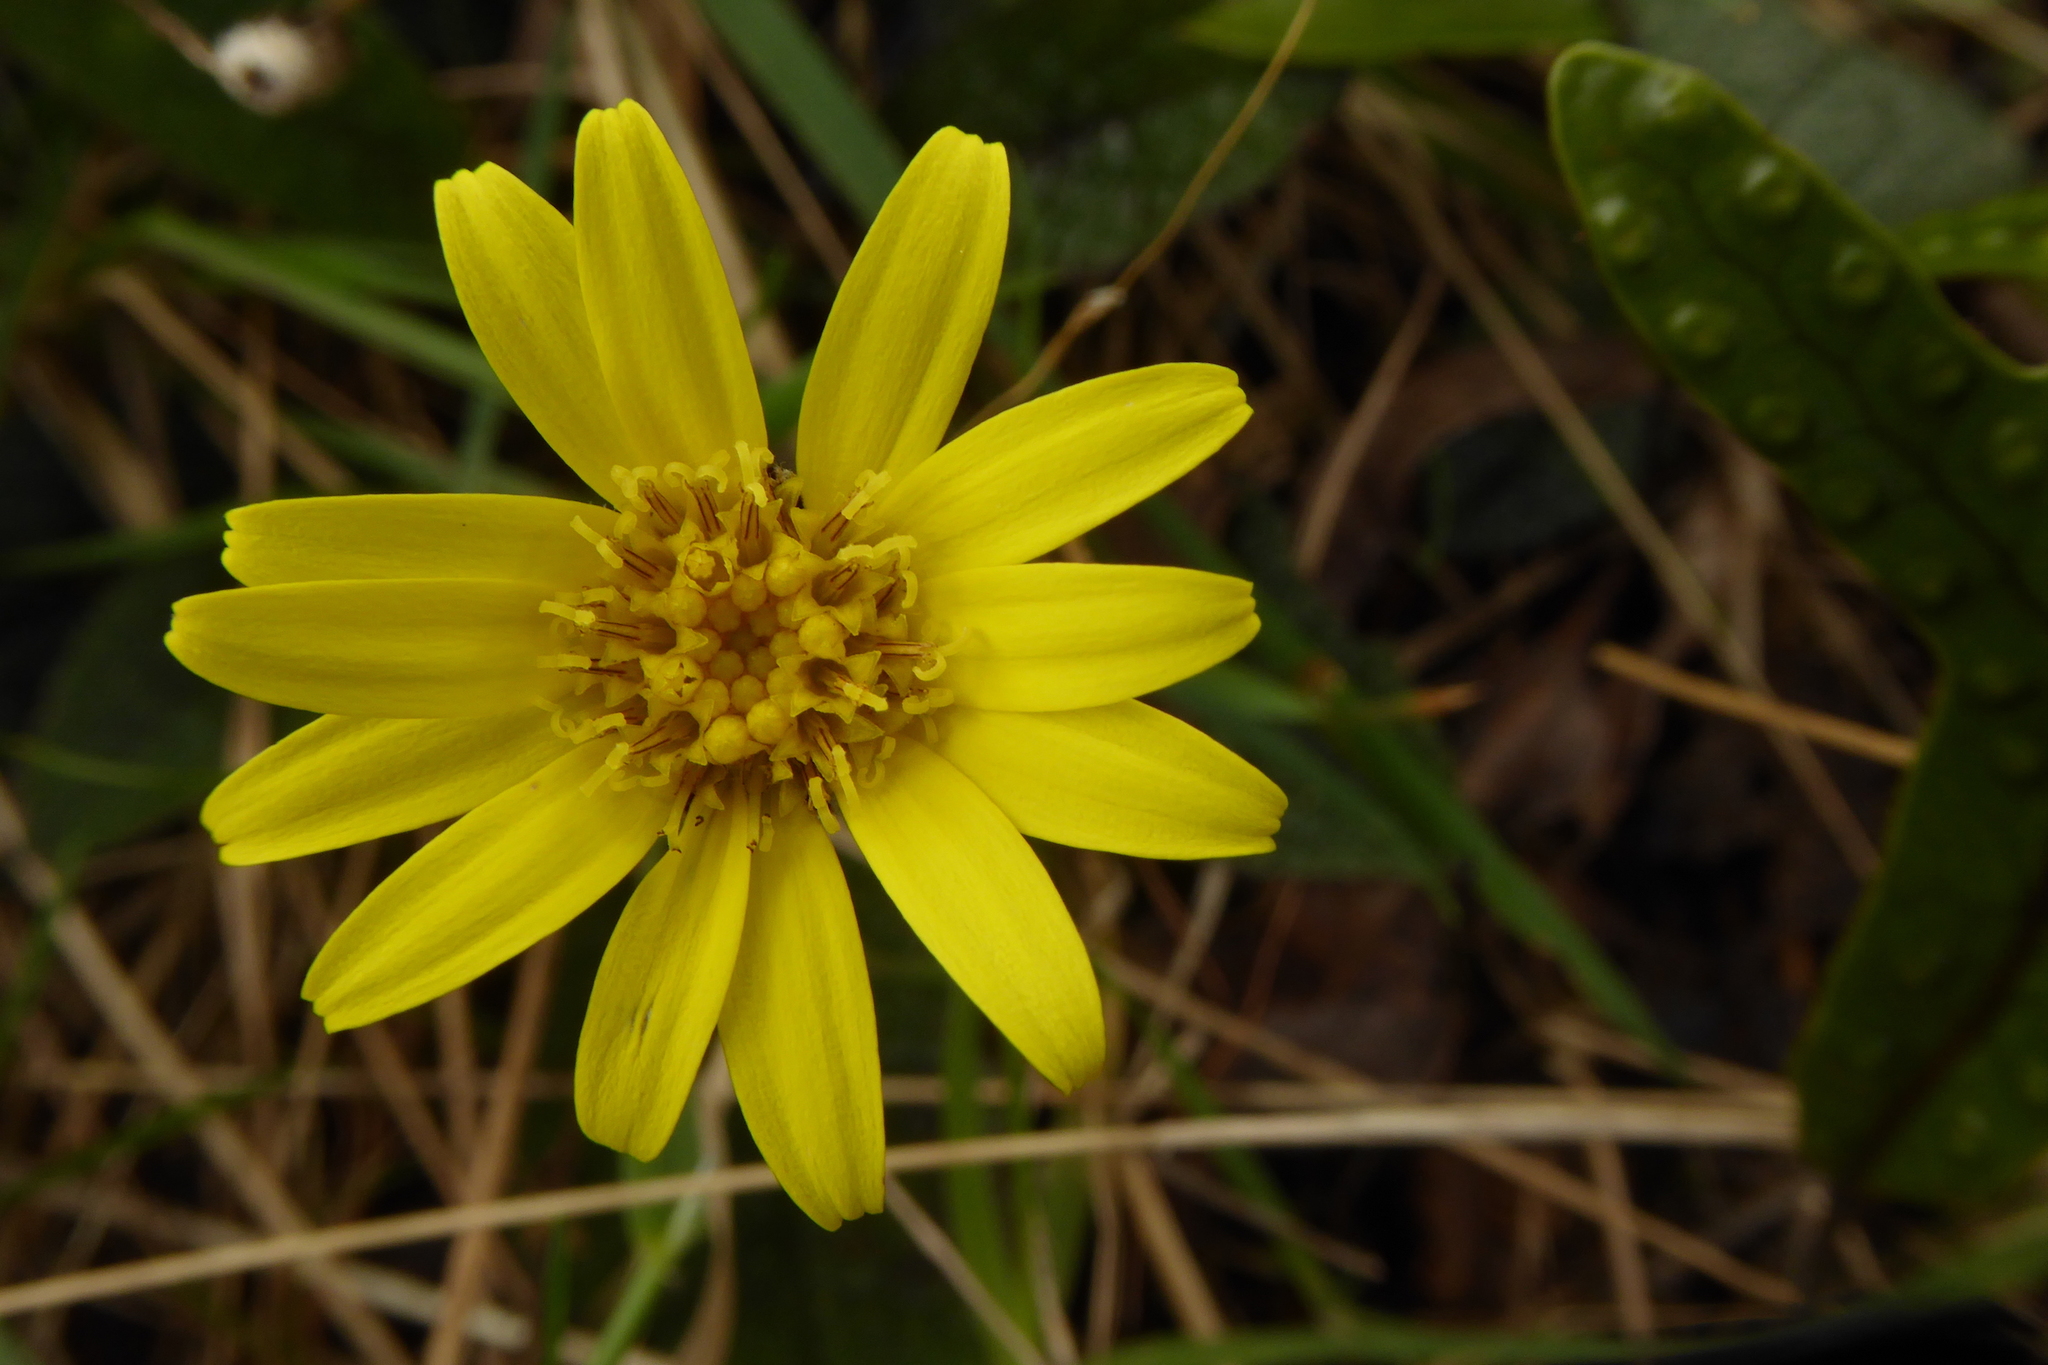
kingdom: Plantae
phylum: Tracheophyta
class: Magnoliopsida
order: Asterales
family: Asteraceae
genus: Brachyglottis
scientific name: Brachyglottis bellidioides
